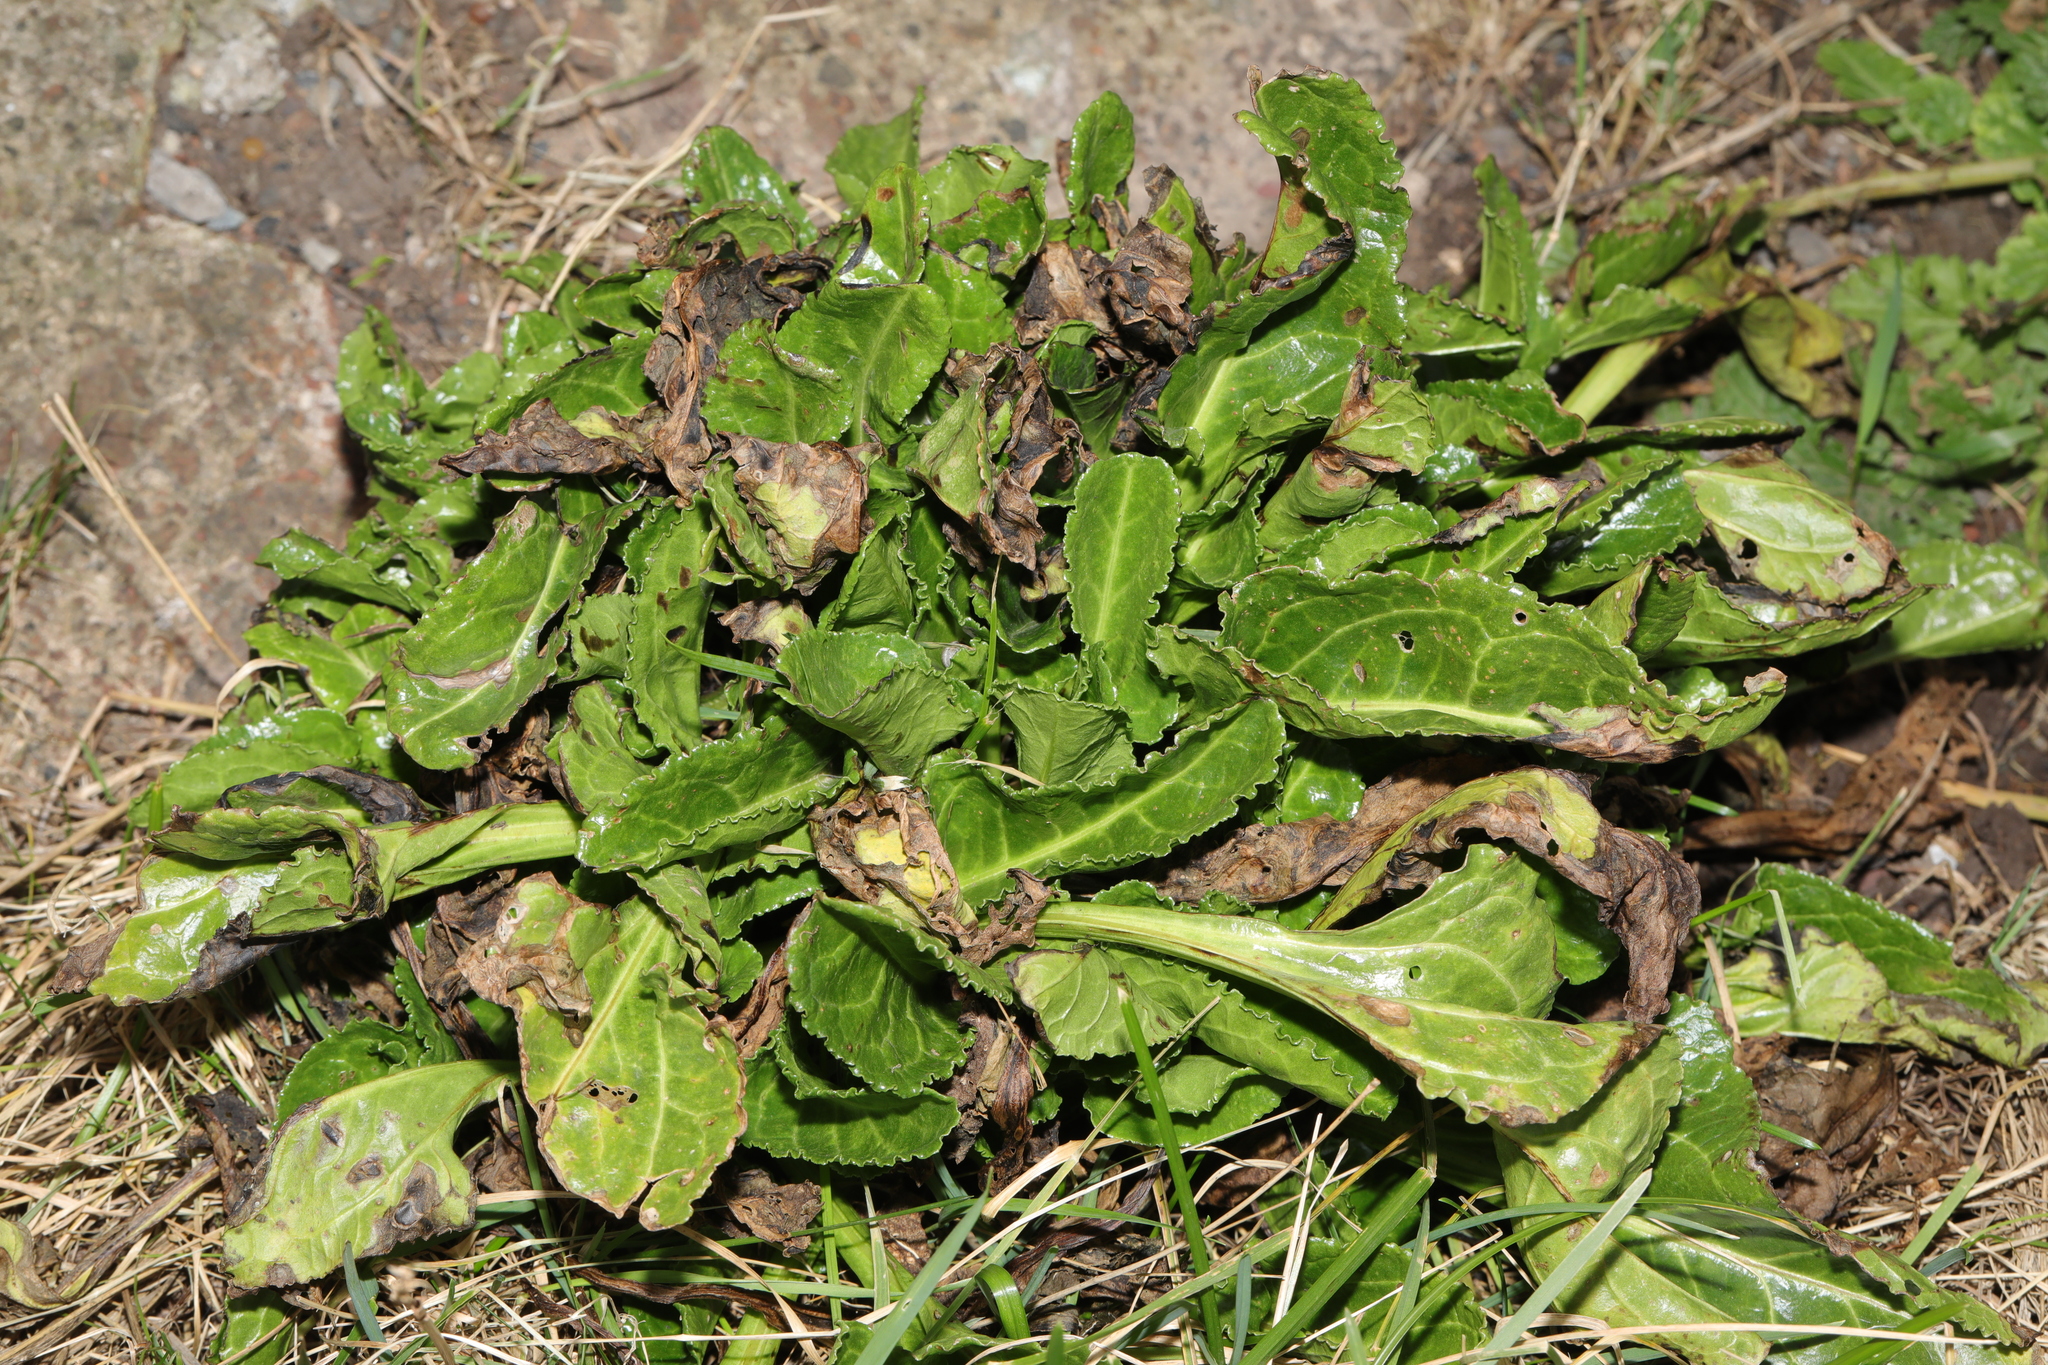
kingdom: Plantae
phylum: Tracheophyta
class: Magnoliopsida
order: Caryophyllales
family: Amaranthaceae
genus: Beta
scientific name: Beta vulgaris
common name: Beet
